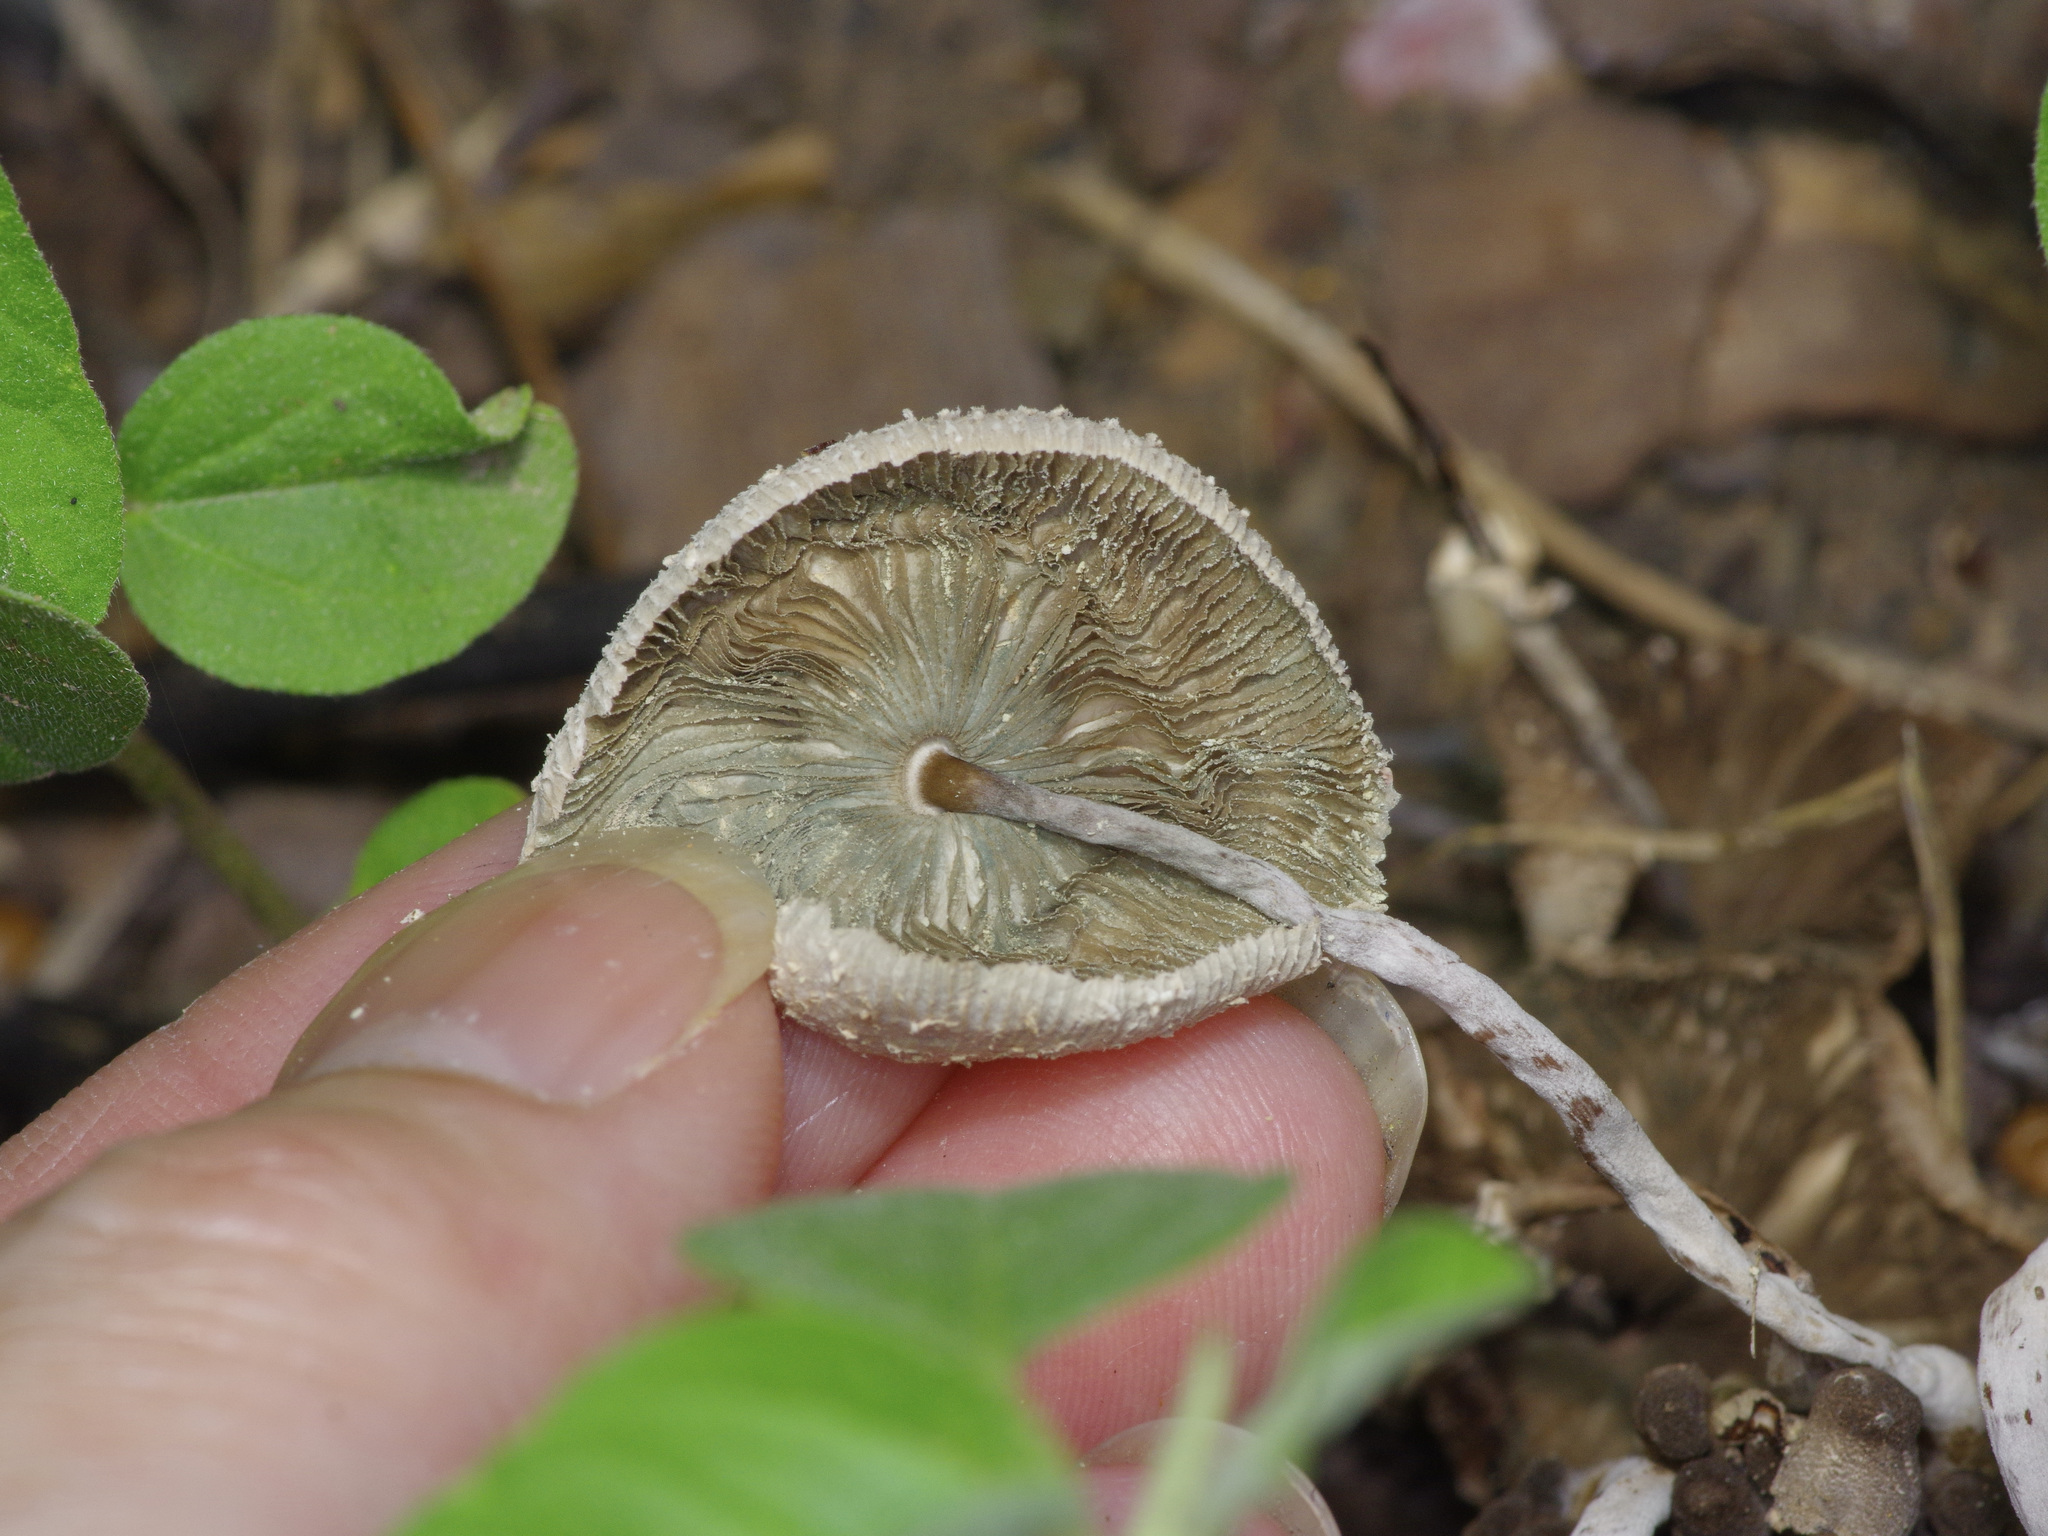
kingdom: Fungi
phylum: Basidiomycota
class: Agaricomycetes
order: Agaricales
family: Agaricaceae
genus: Leucocoprinus
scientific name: Leucocoprinus cepistipes
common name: Onion-stalk parasol
